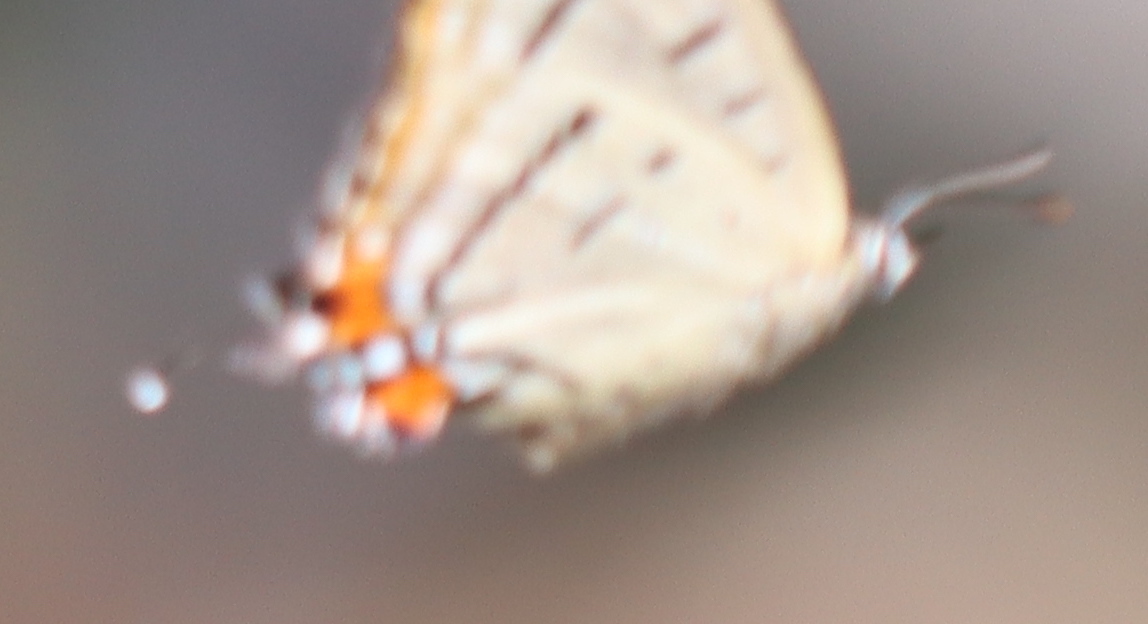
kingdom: Animalia
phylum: Arthropoda
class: Insecta
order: Lepidoptera
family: Lycaenidae
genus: Jalmenus
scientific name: Jalmenus evagoras
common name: Common imperial blue
